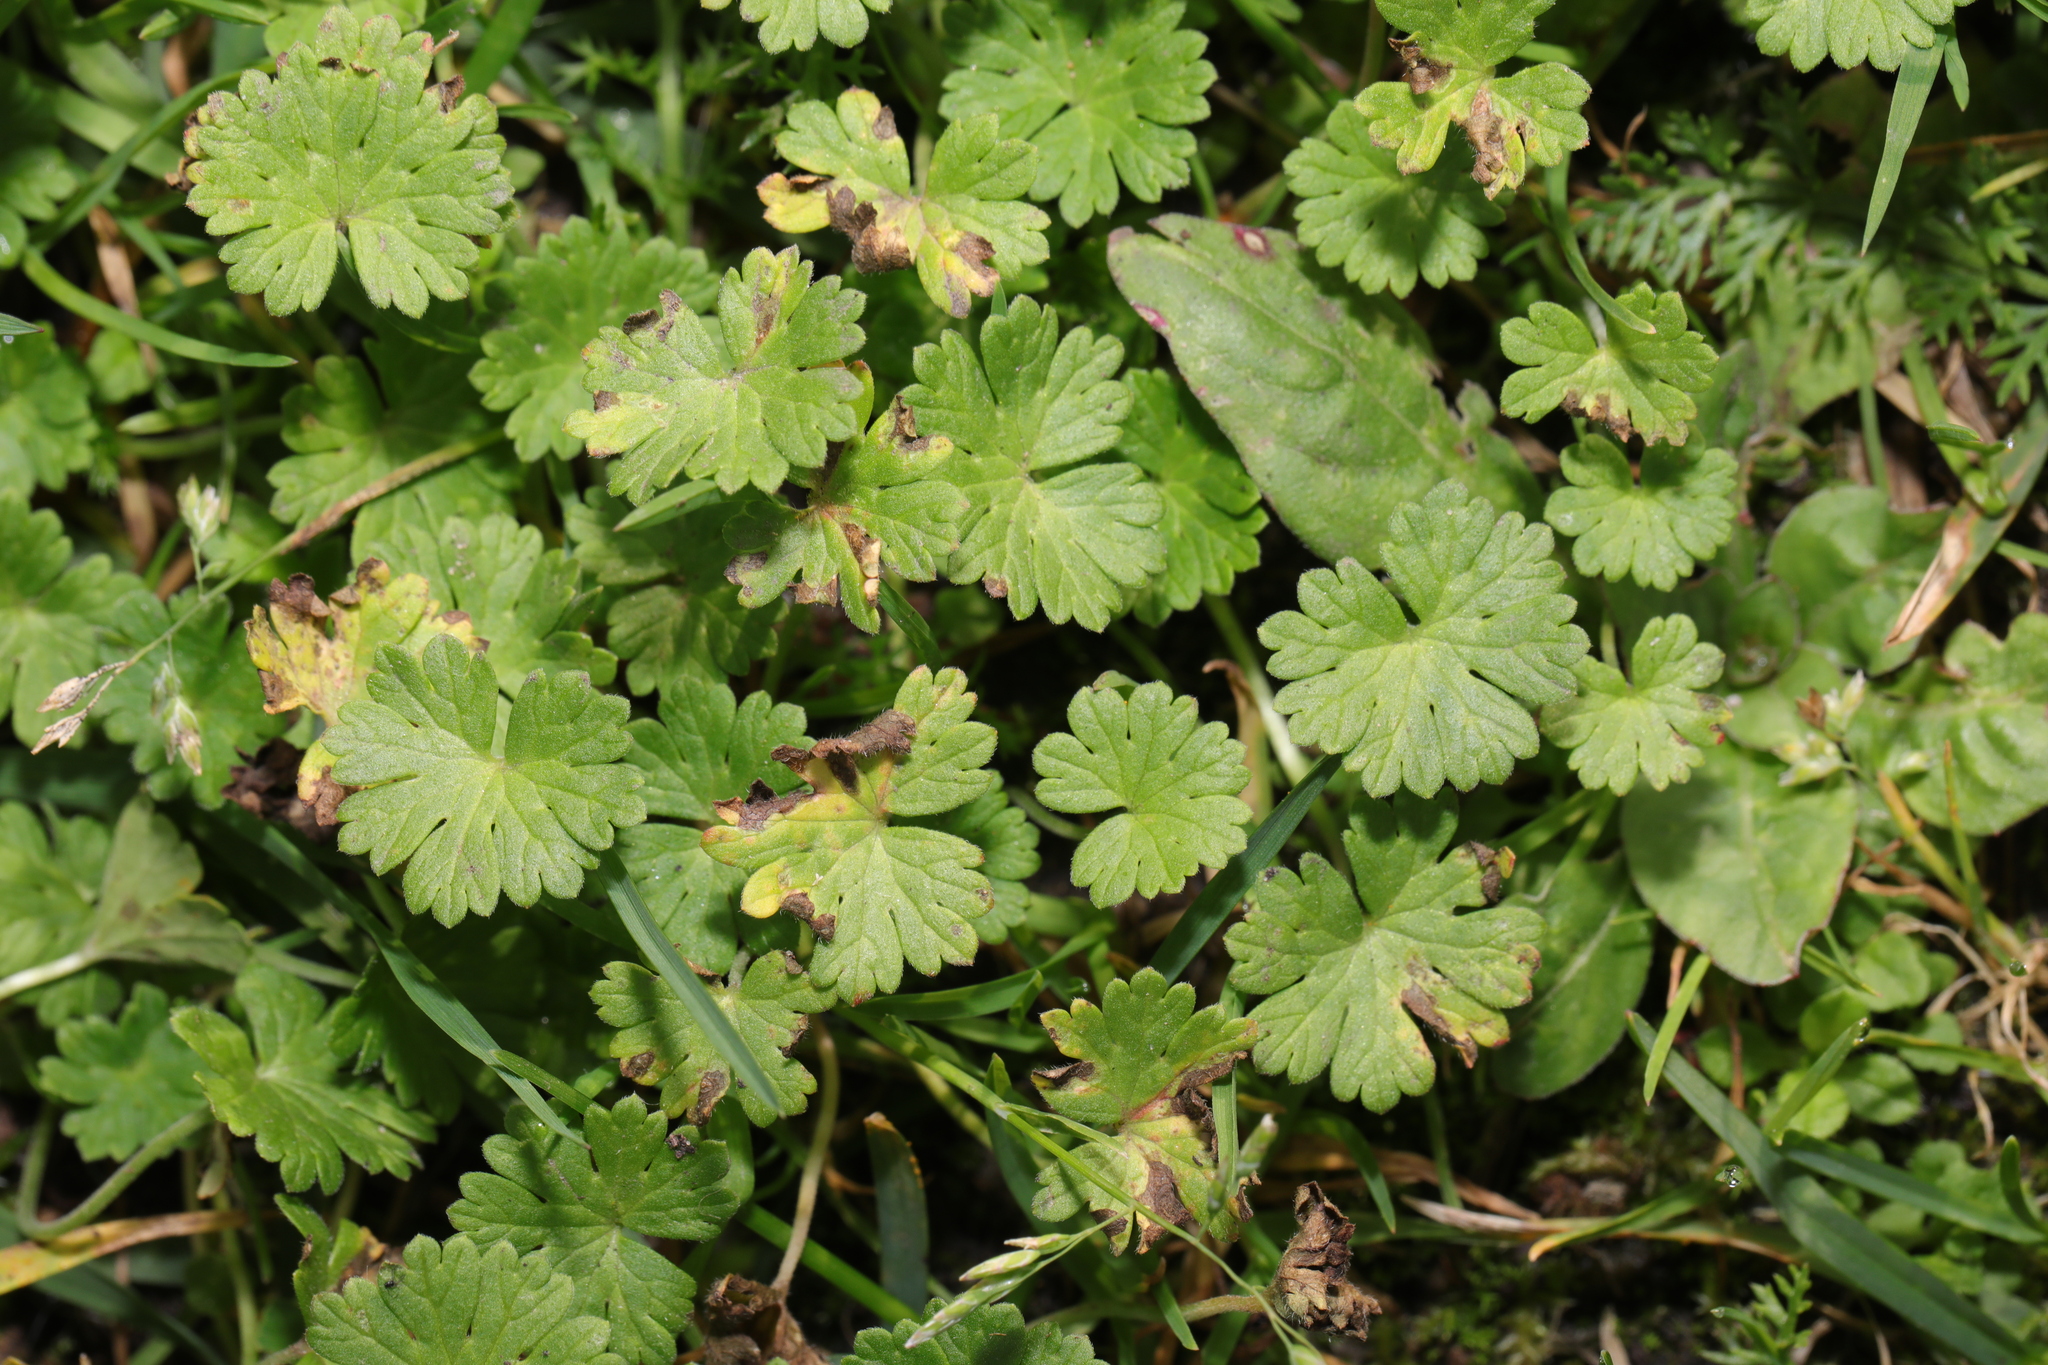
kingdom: Plantae
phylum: Tracheophyta
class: Magnoliopsida
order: Geraniales
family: Geraniaceae
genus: Geranium
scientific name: Geranium molle
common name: Dove's-foot crane's-bill
